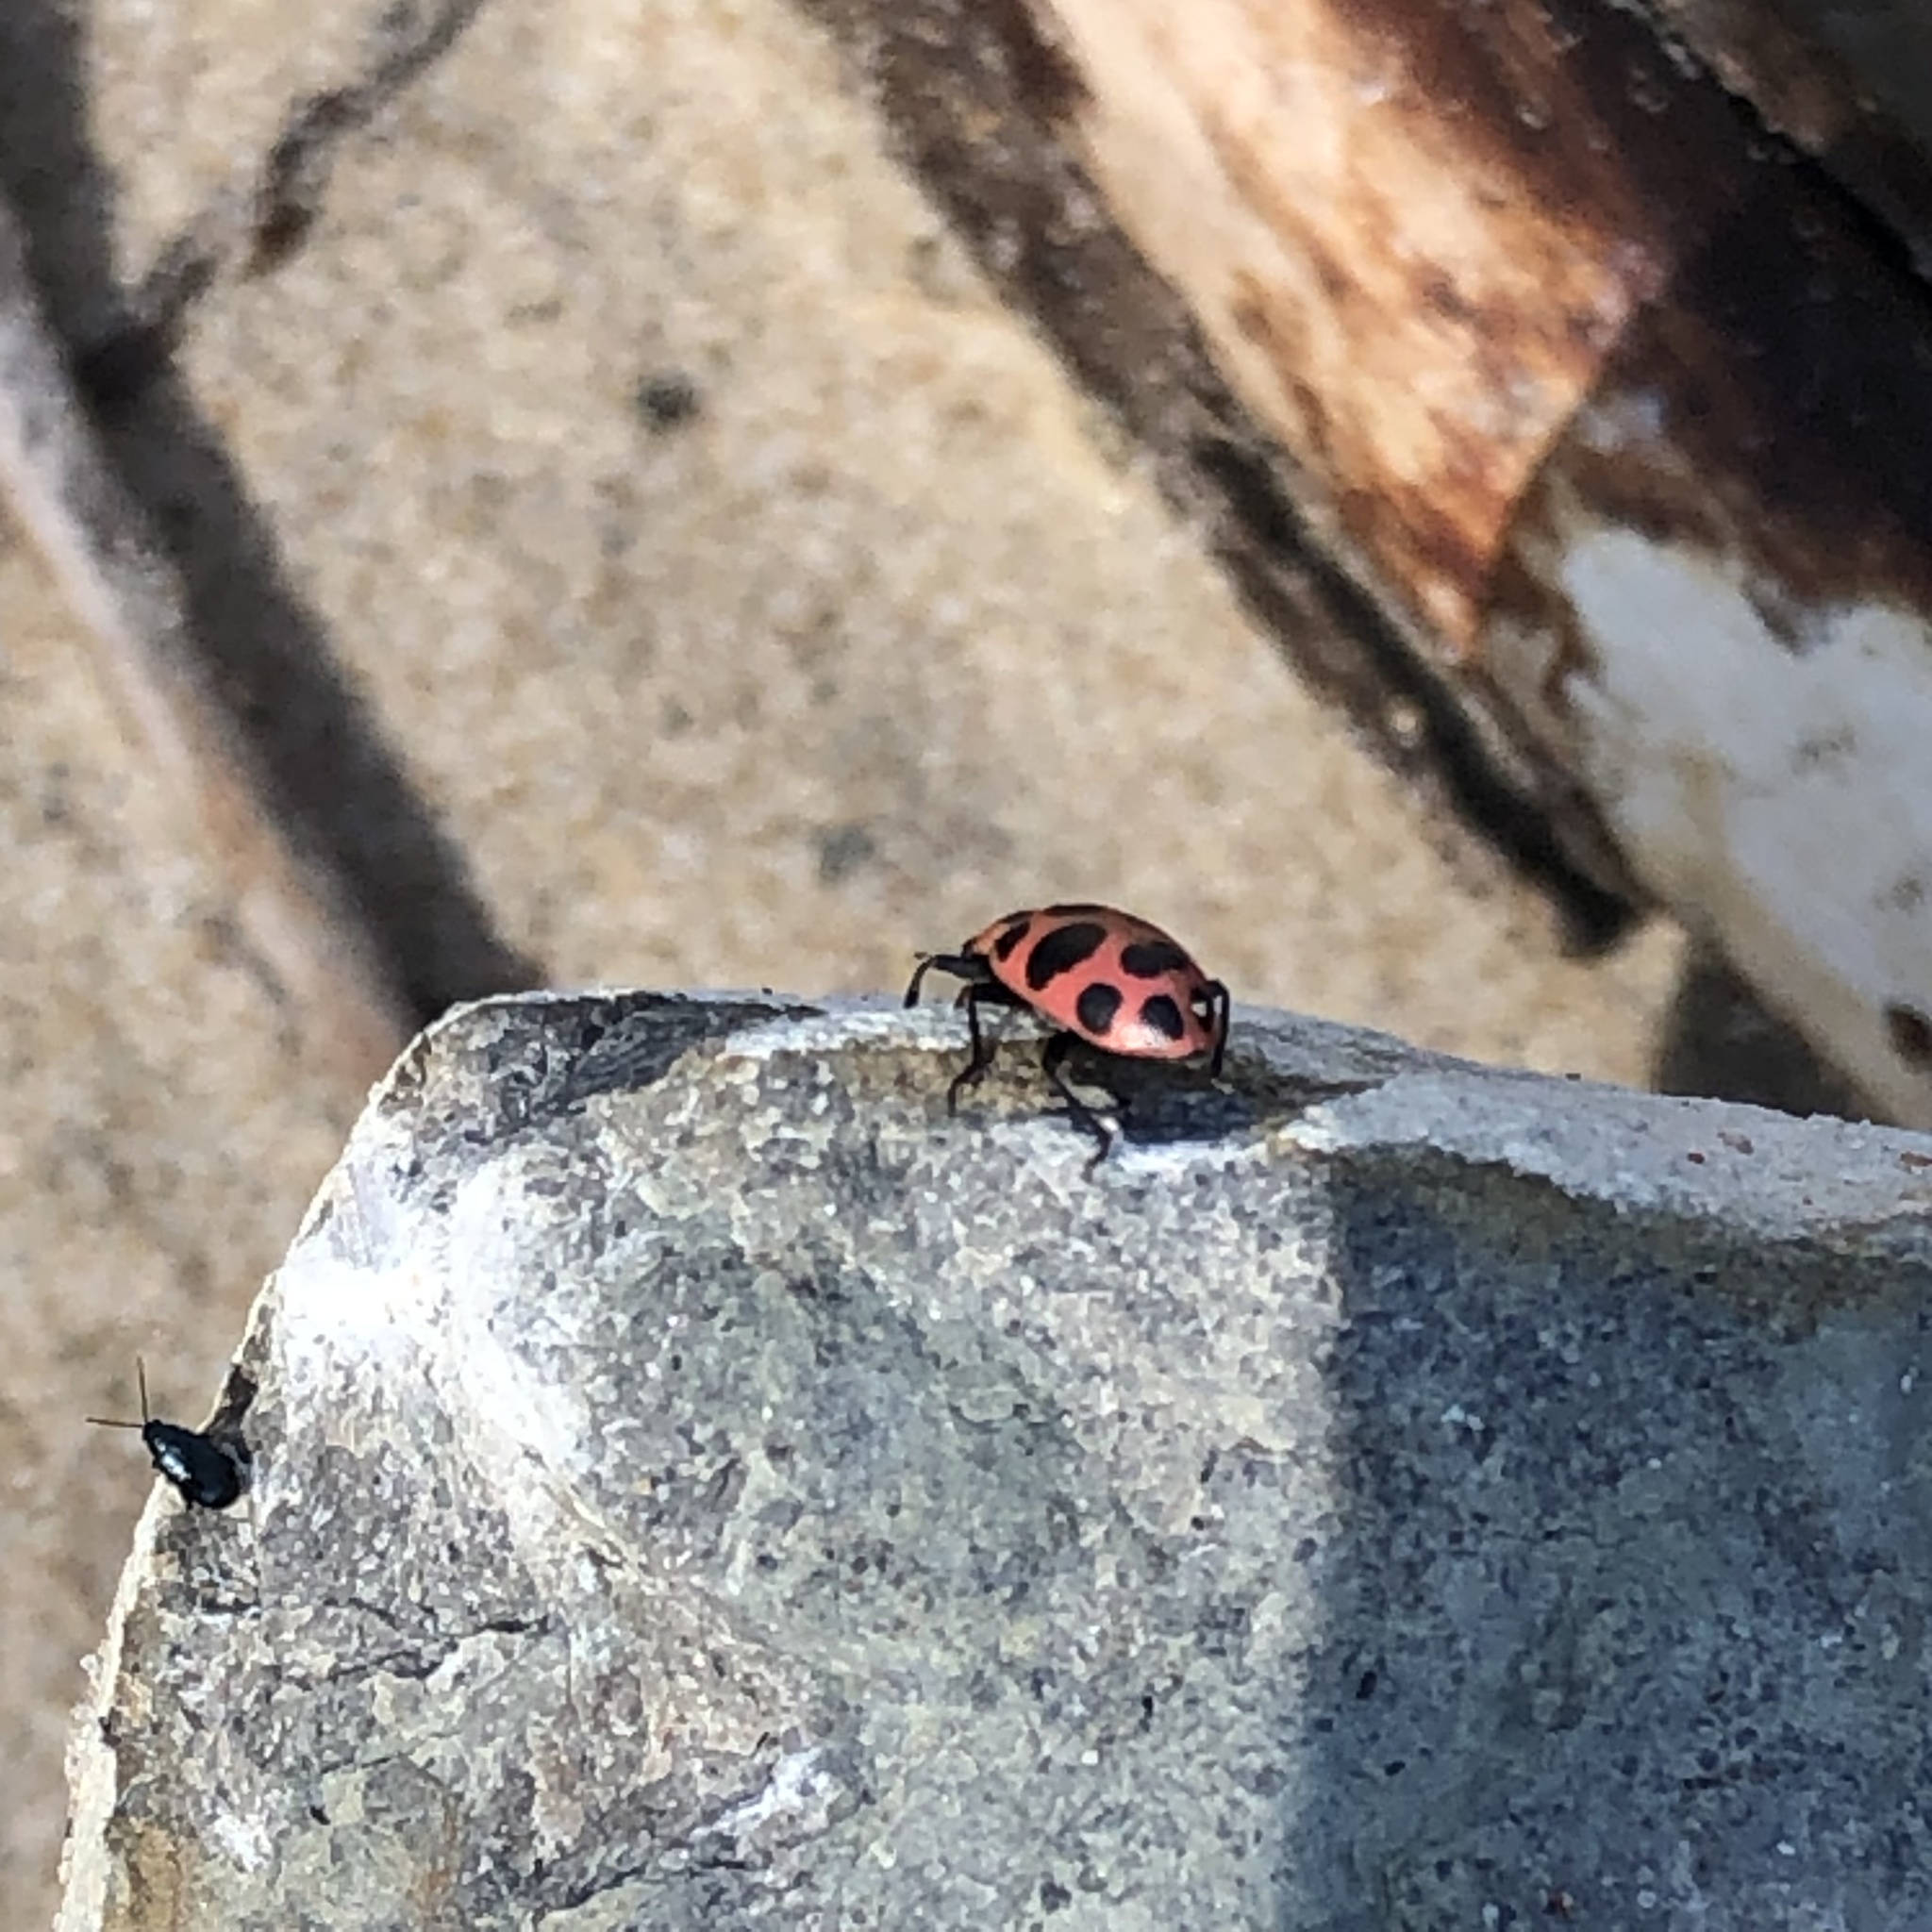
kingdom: Animalia
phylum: Arthropoda
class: Insecta
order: Coleoptera
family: Coccinellidae
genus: Coleomegilla
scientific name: Coleomegilla maculata
